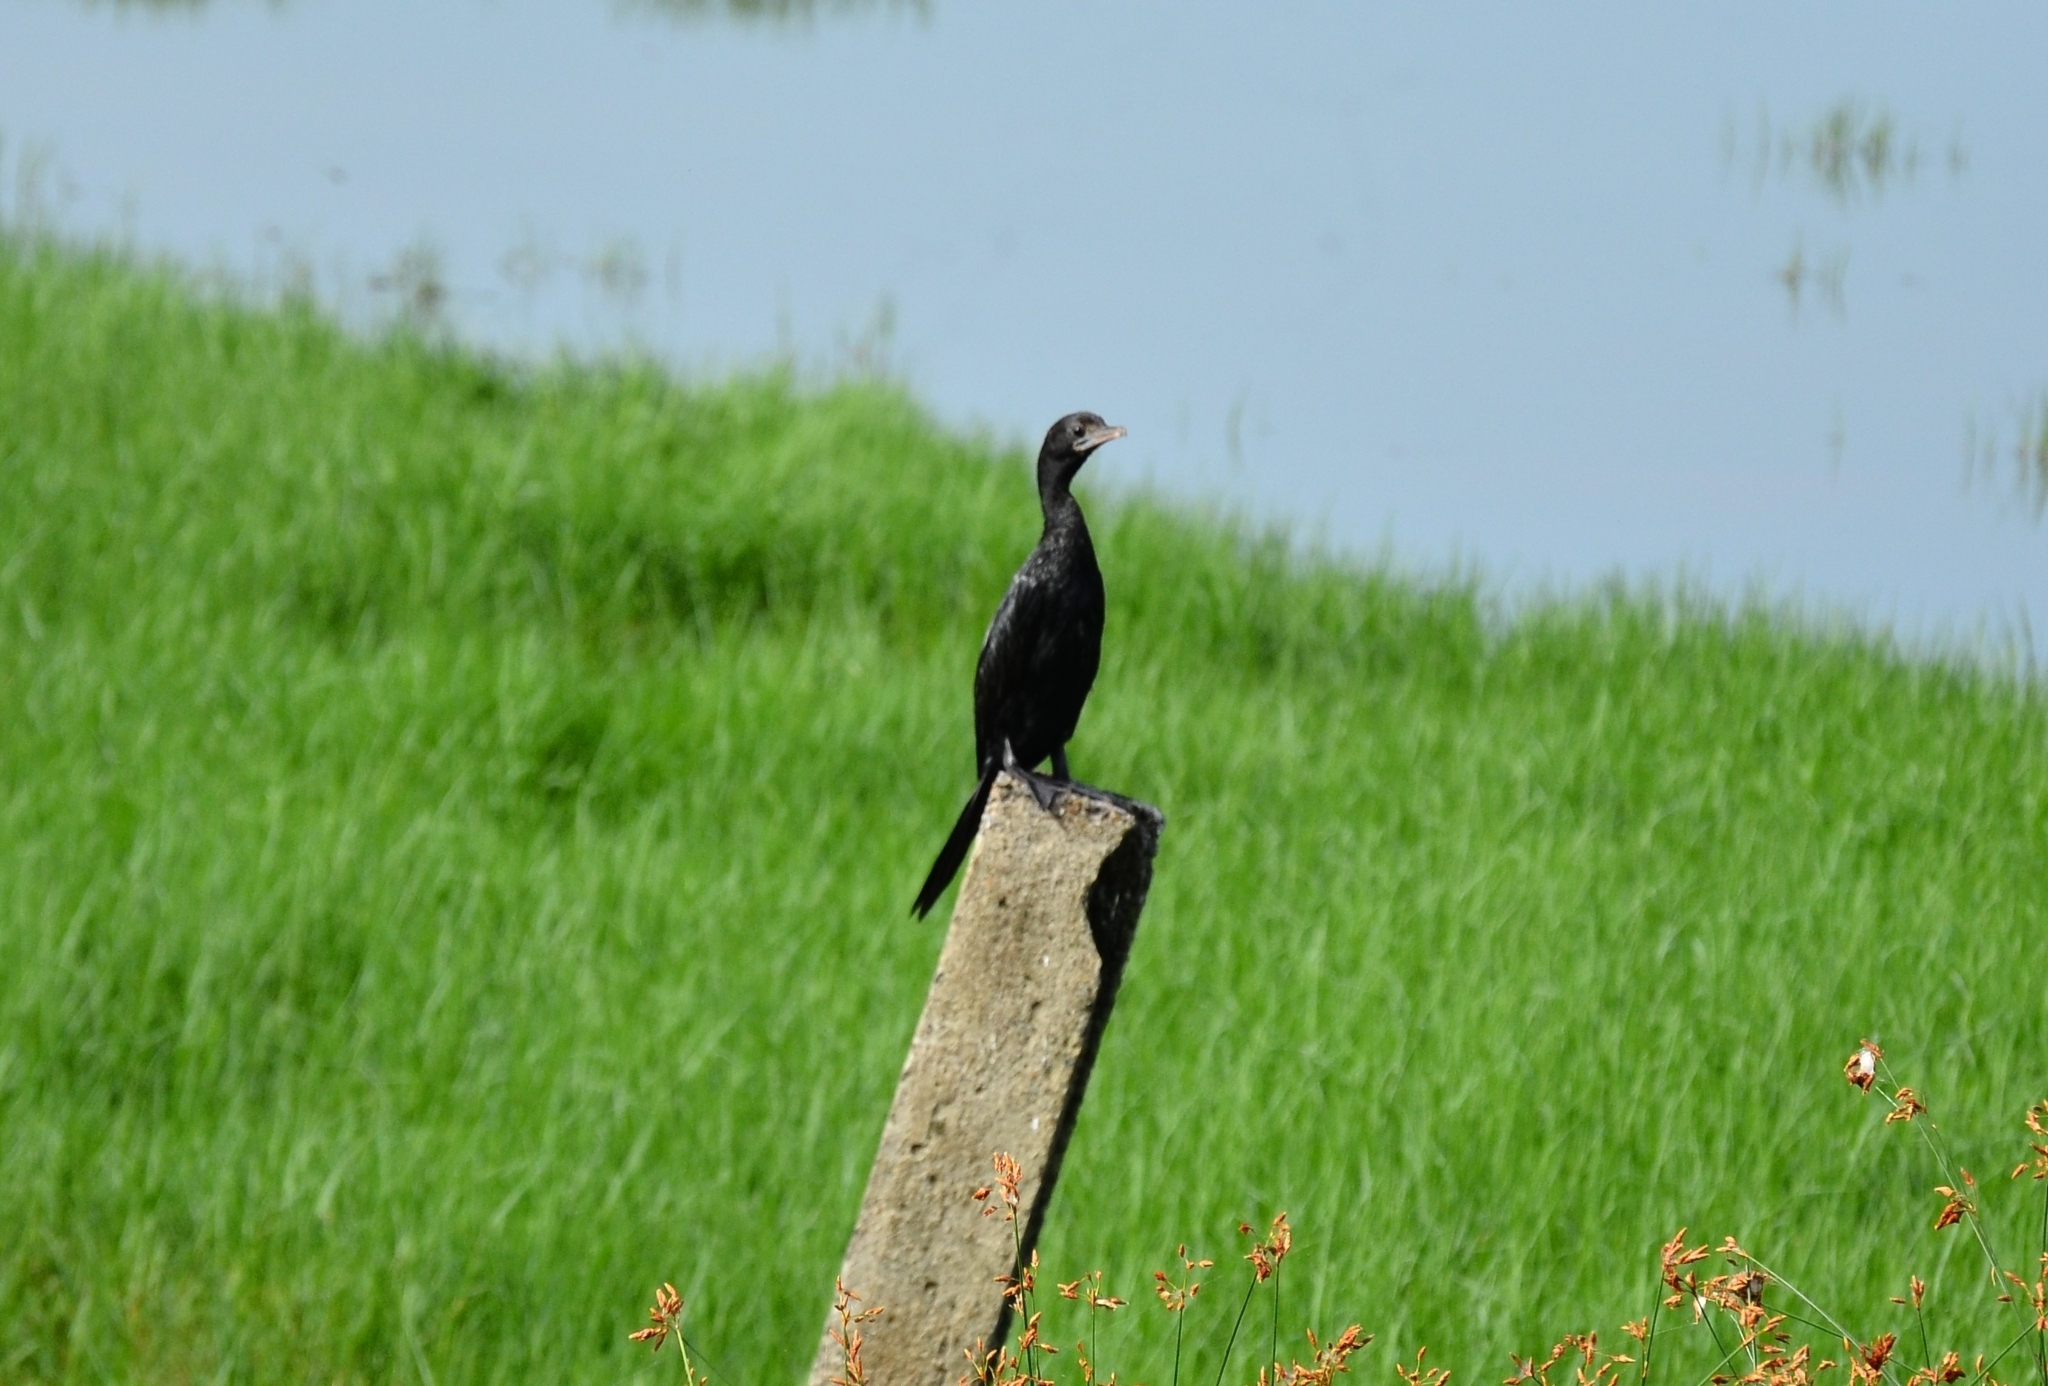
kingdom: Animalia
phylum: Chordata
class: Aves
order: Suliformes
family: Phalacrocoracidae
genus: Microcarbo
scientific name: Microcarbo niger
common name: Little cormorant
